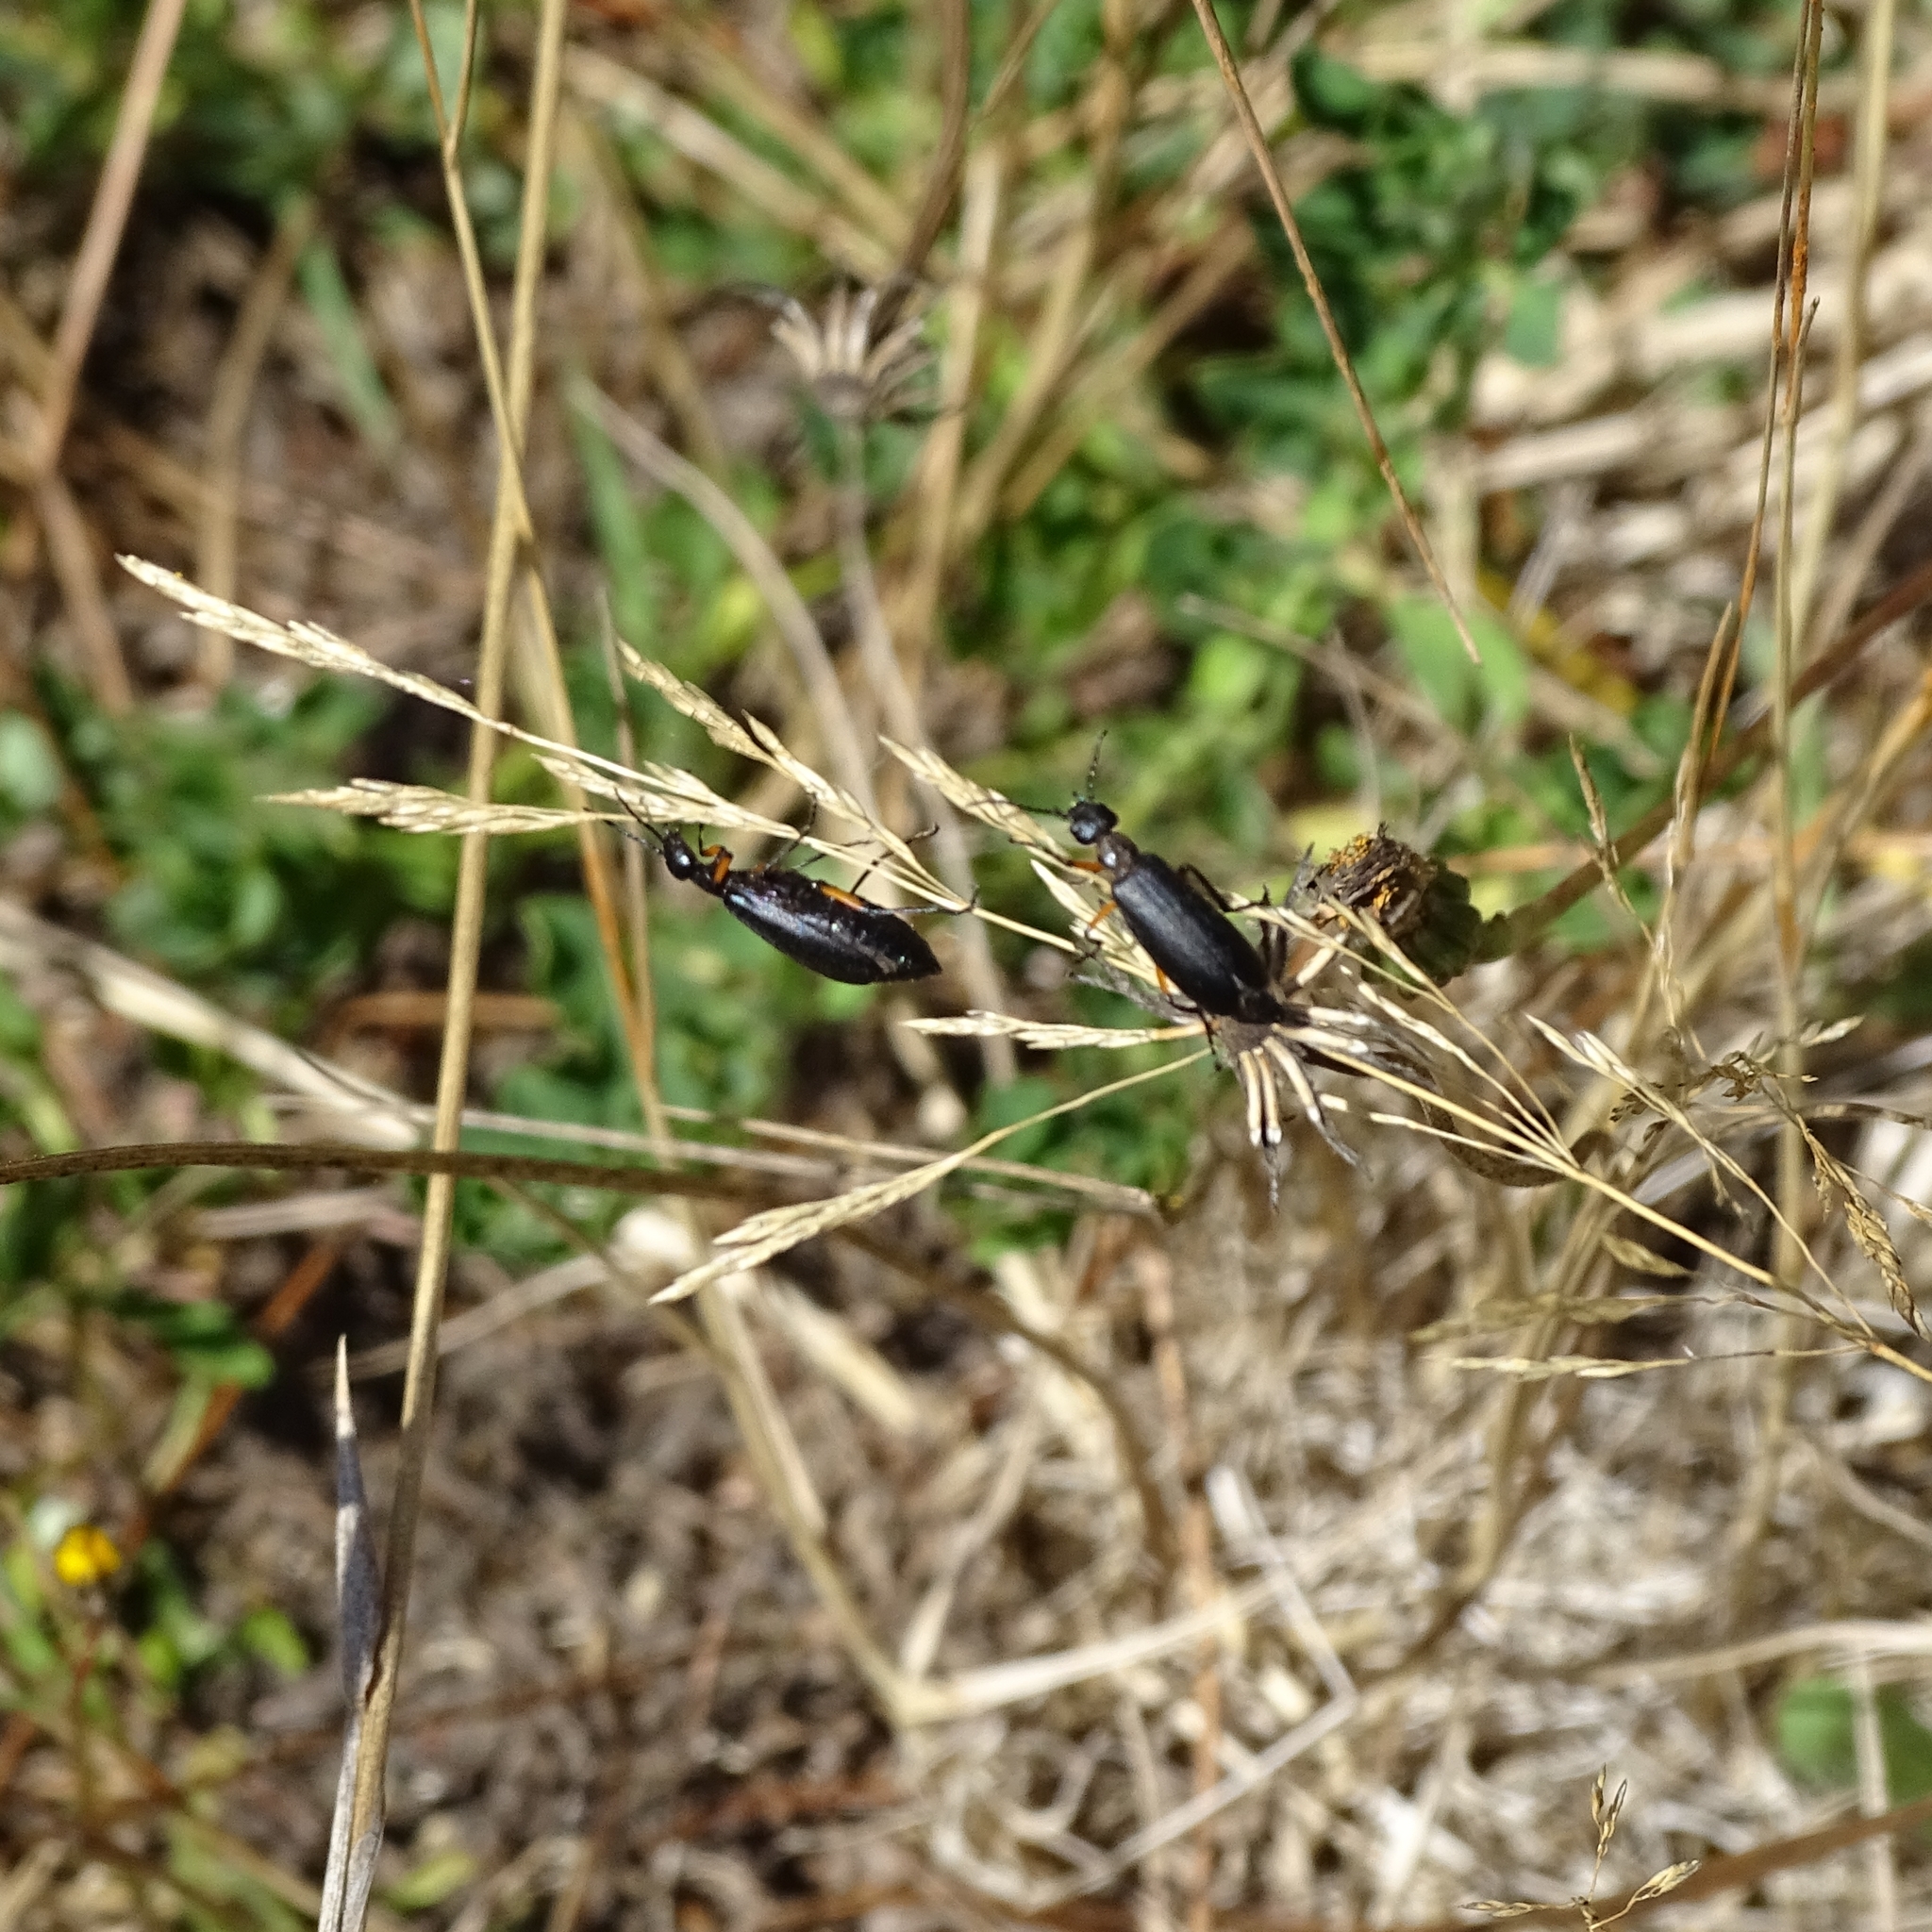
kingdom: Animalia
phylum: Arthropoda
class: Insecta
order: Coleoptera
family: Meloidae
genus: Epicauta
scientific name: Epicauta
